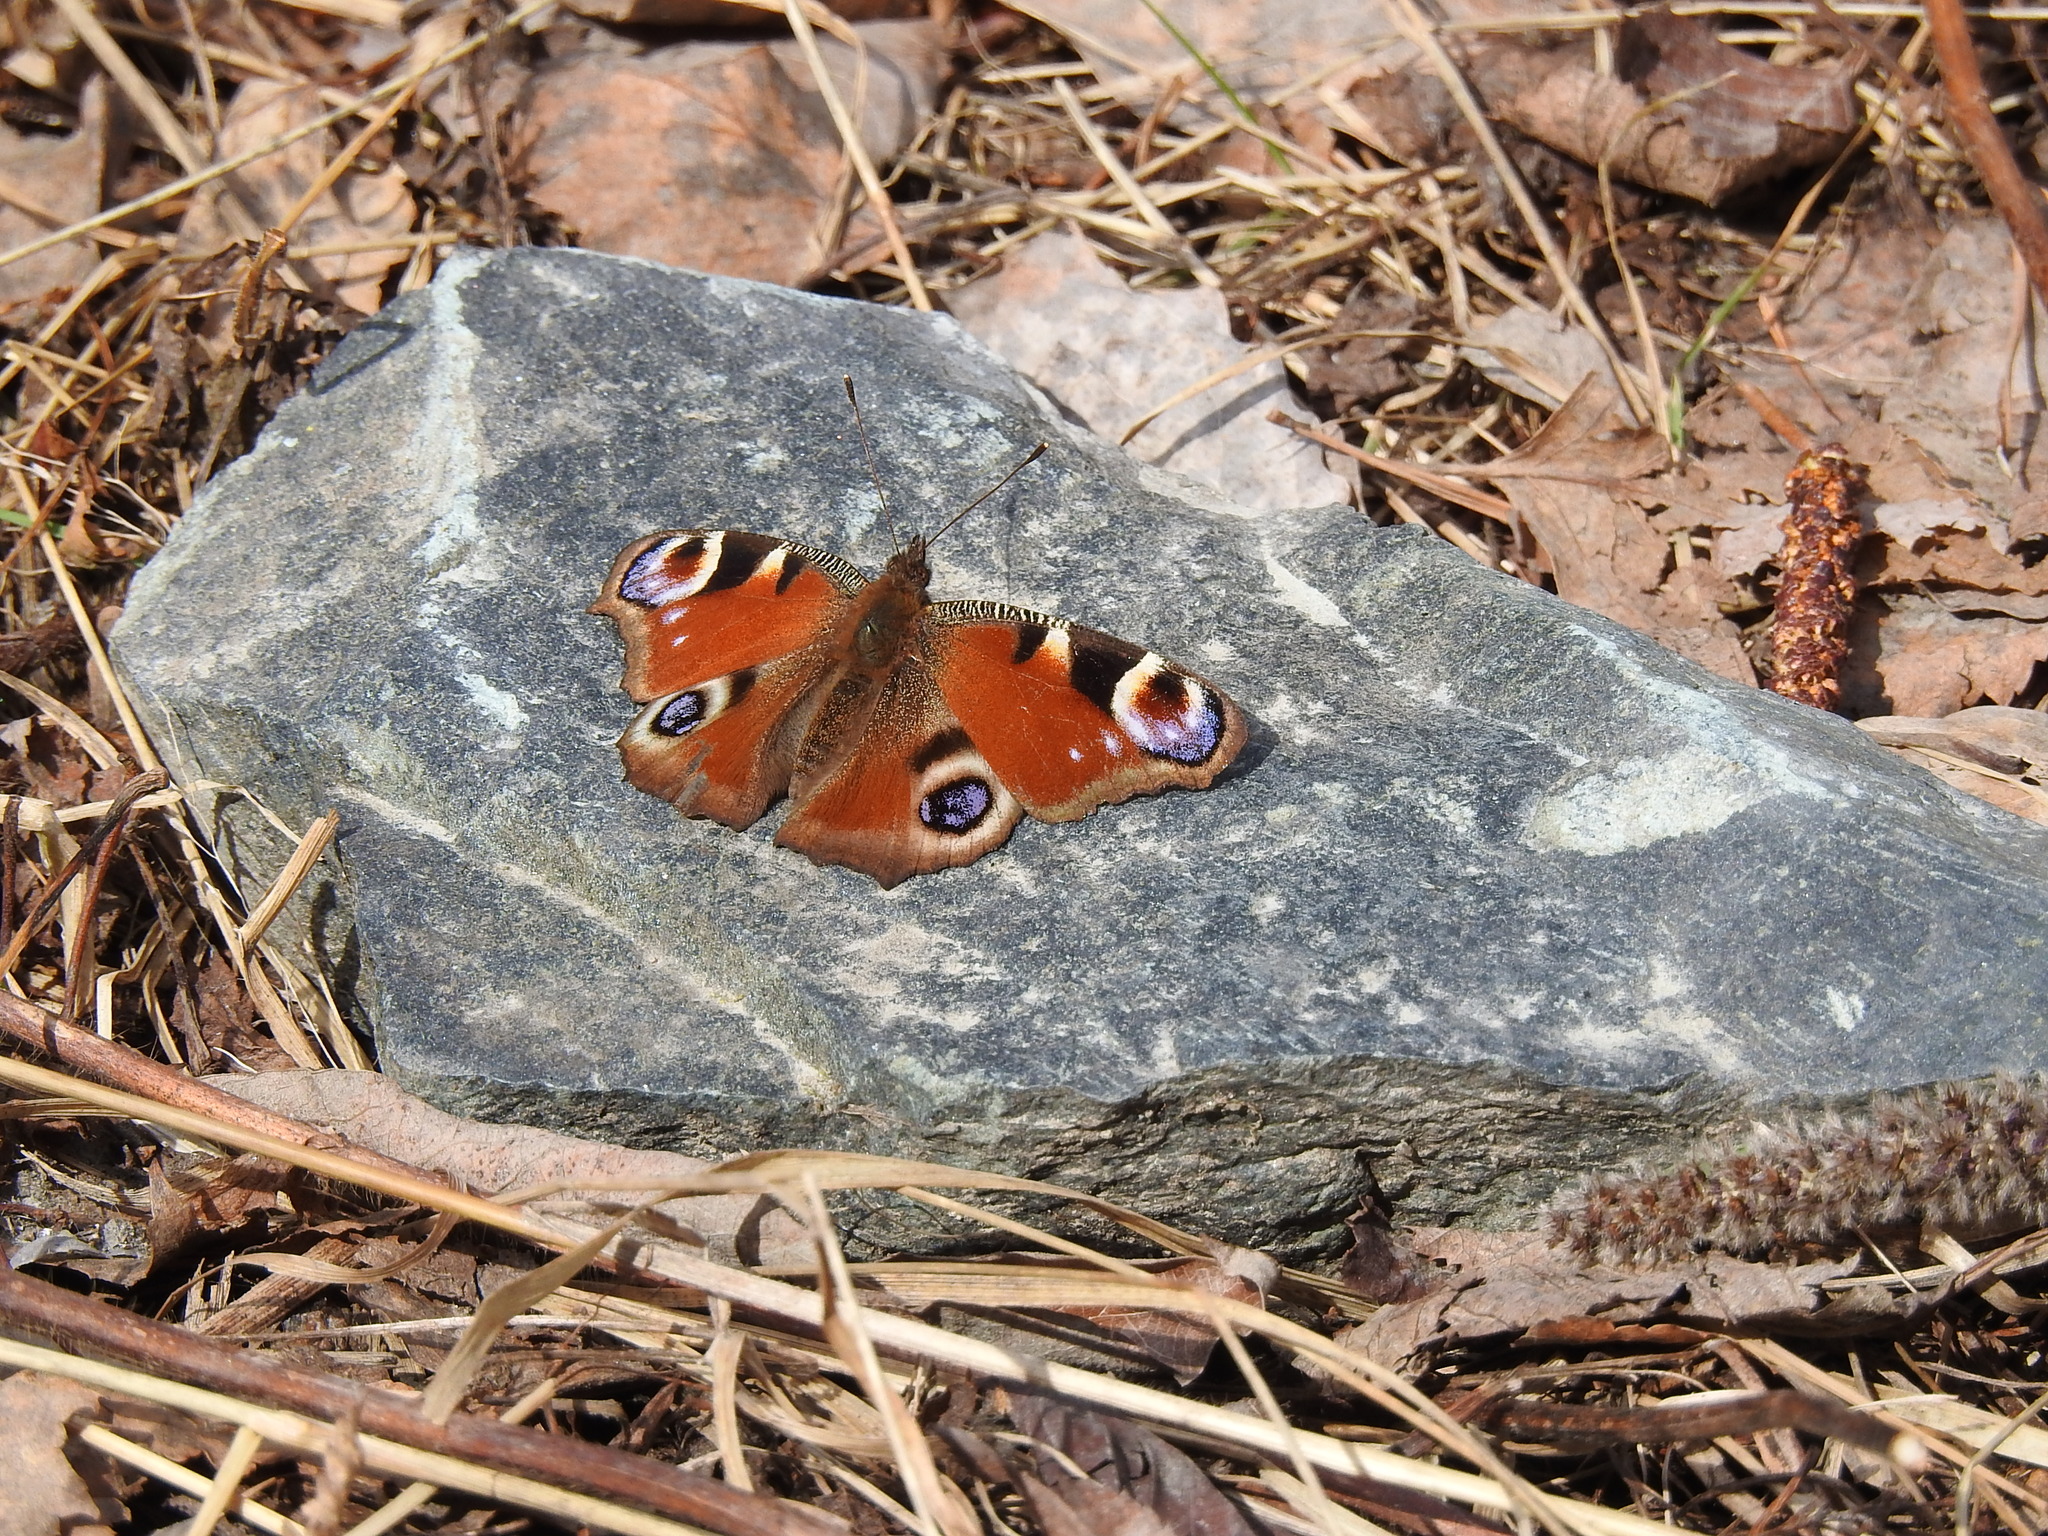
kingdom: Animalia
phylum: Arthropoda
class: Insecta
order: Lepidoptera
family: Nymphalidae
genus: Aglais
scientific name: Aglais io
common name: Peacock
